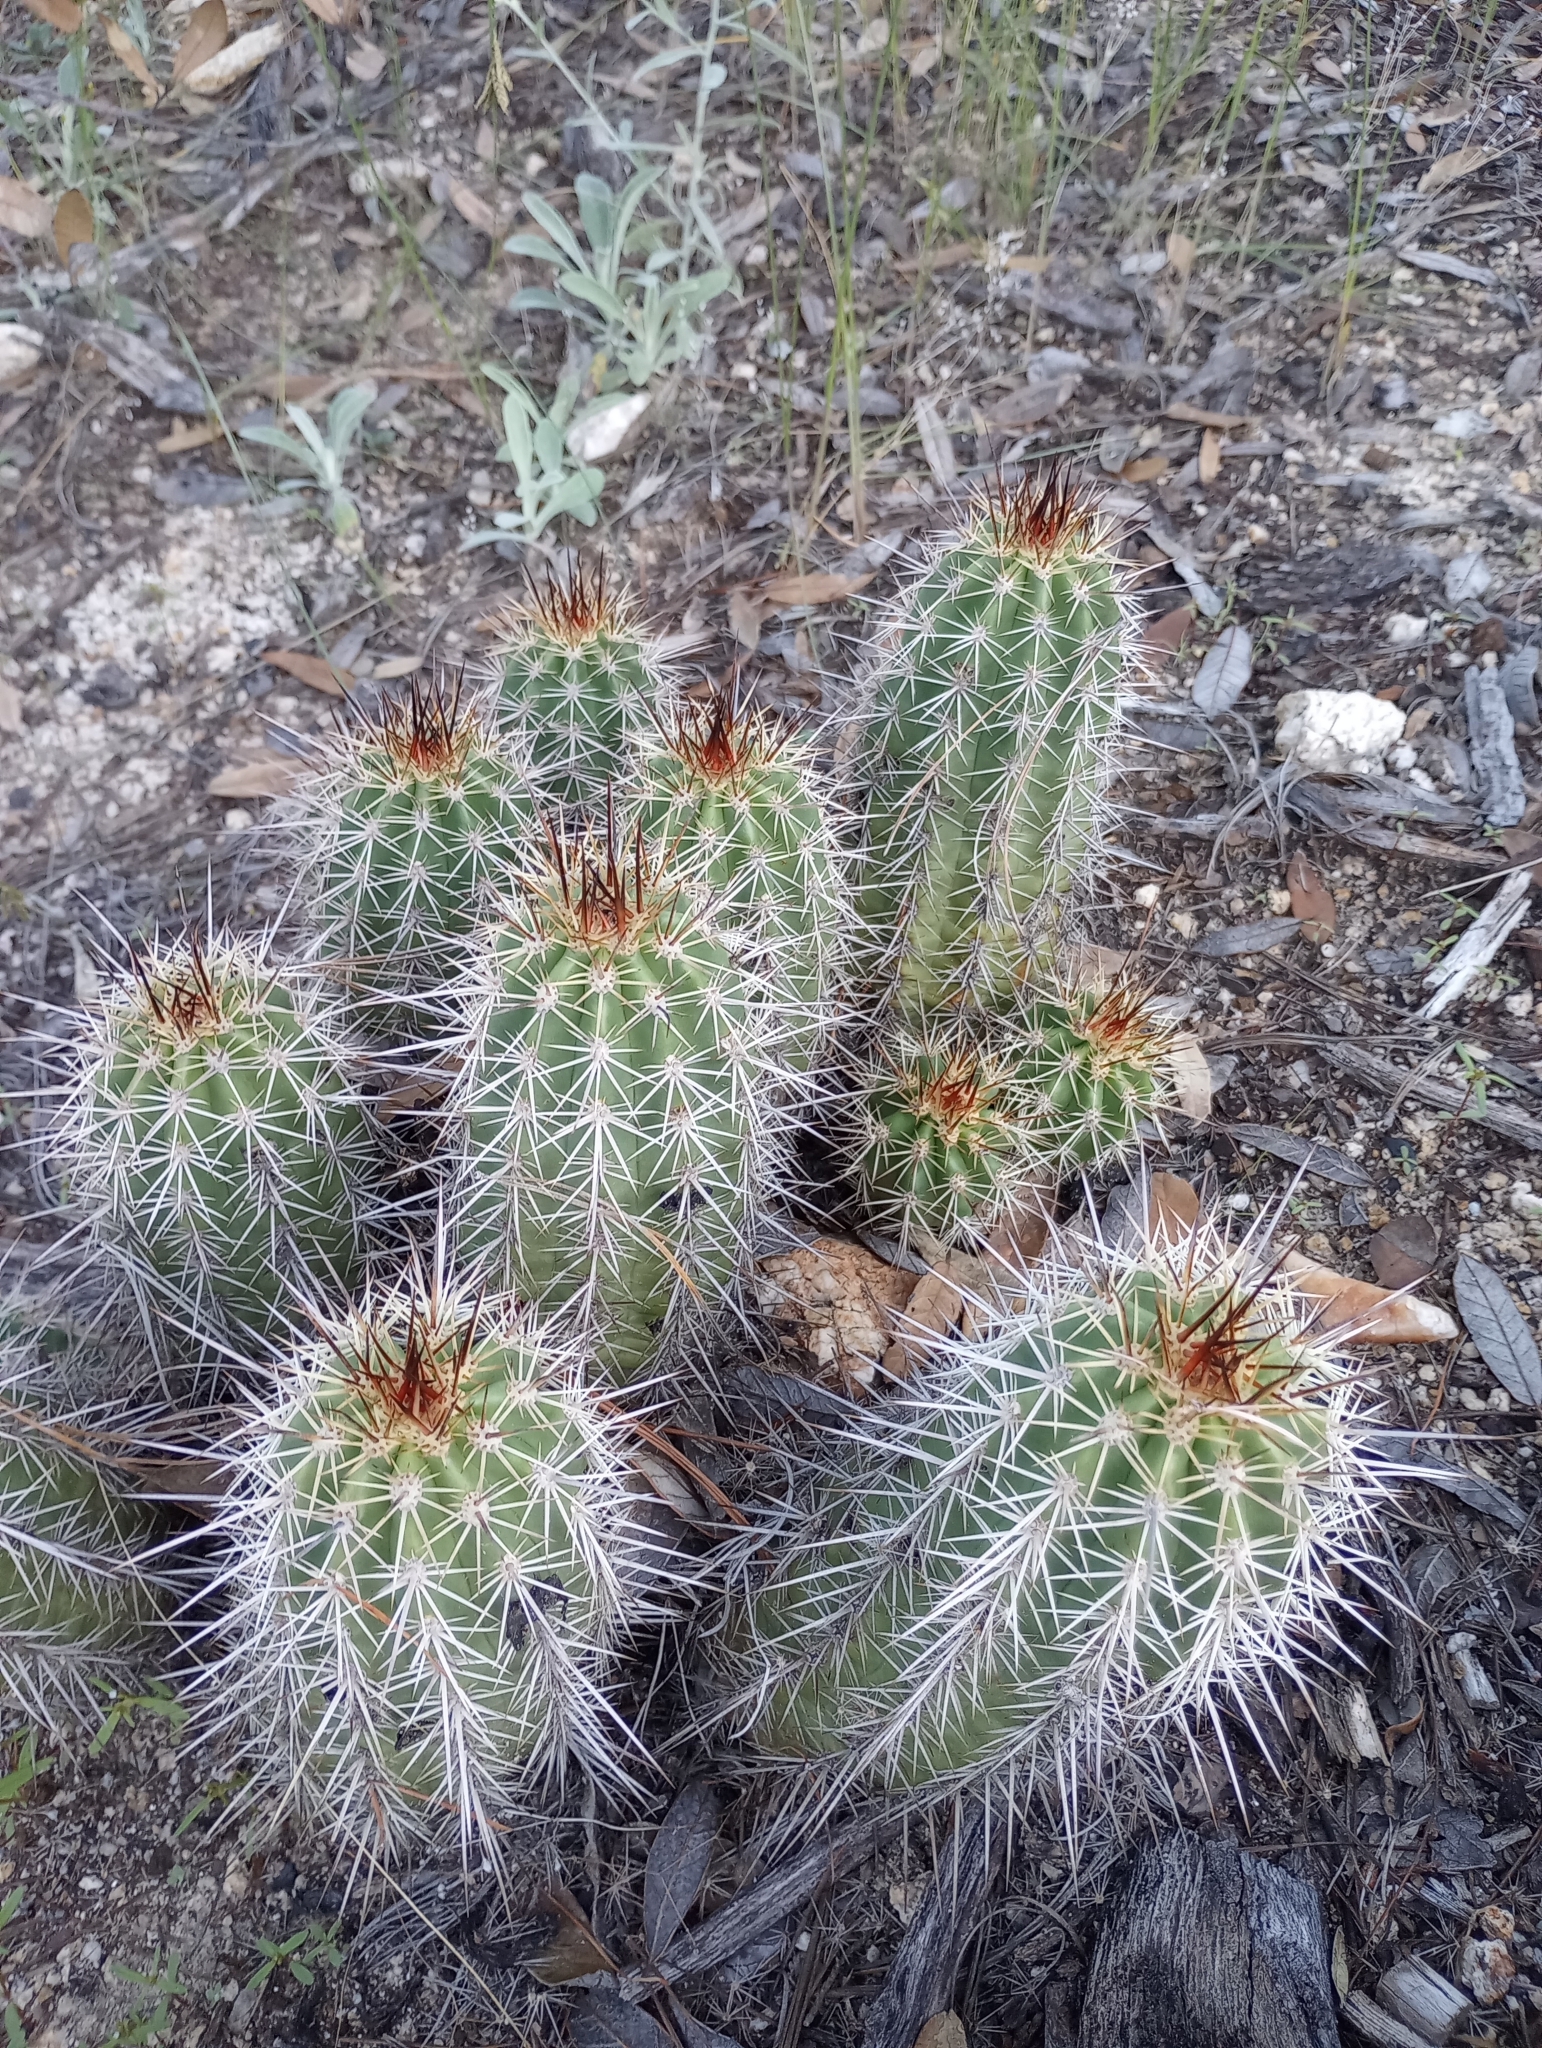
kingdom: Plantae
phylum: Tracheophyta
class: Magnoliopsida
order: Caryophyllales
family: Cactaceae
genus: Echinocereus
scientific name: Echinocereus coccineus
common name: Scarlet hedgehog cactus
